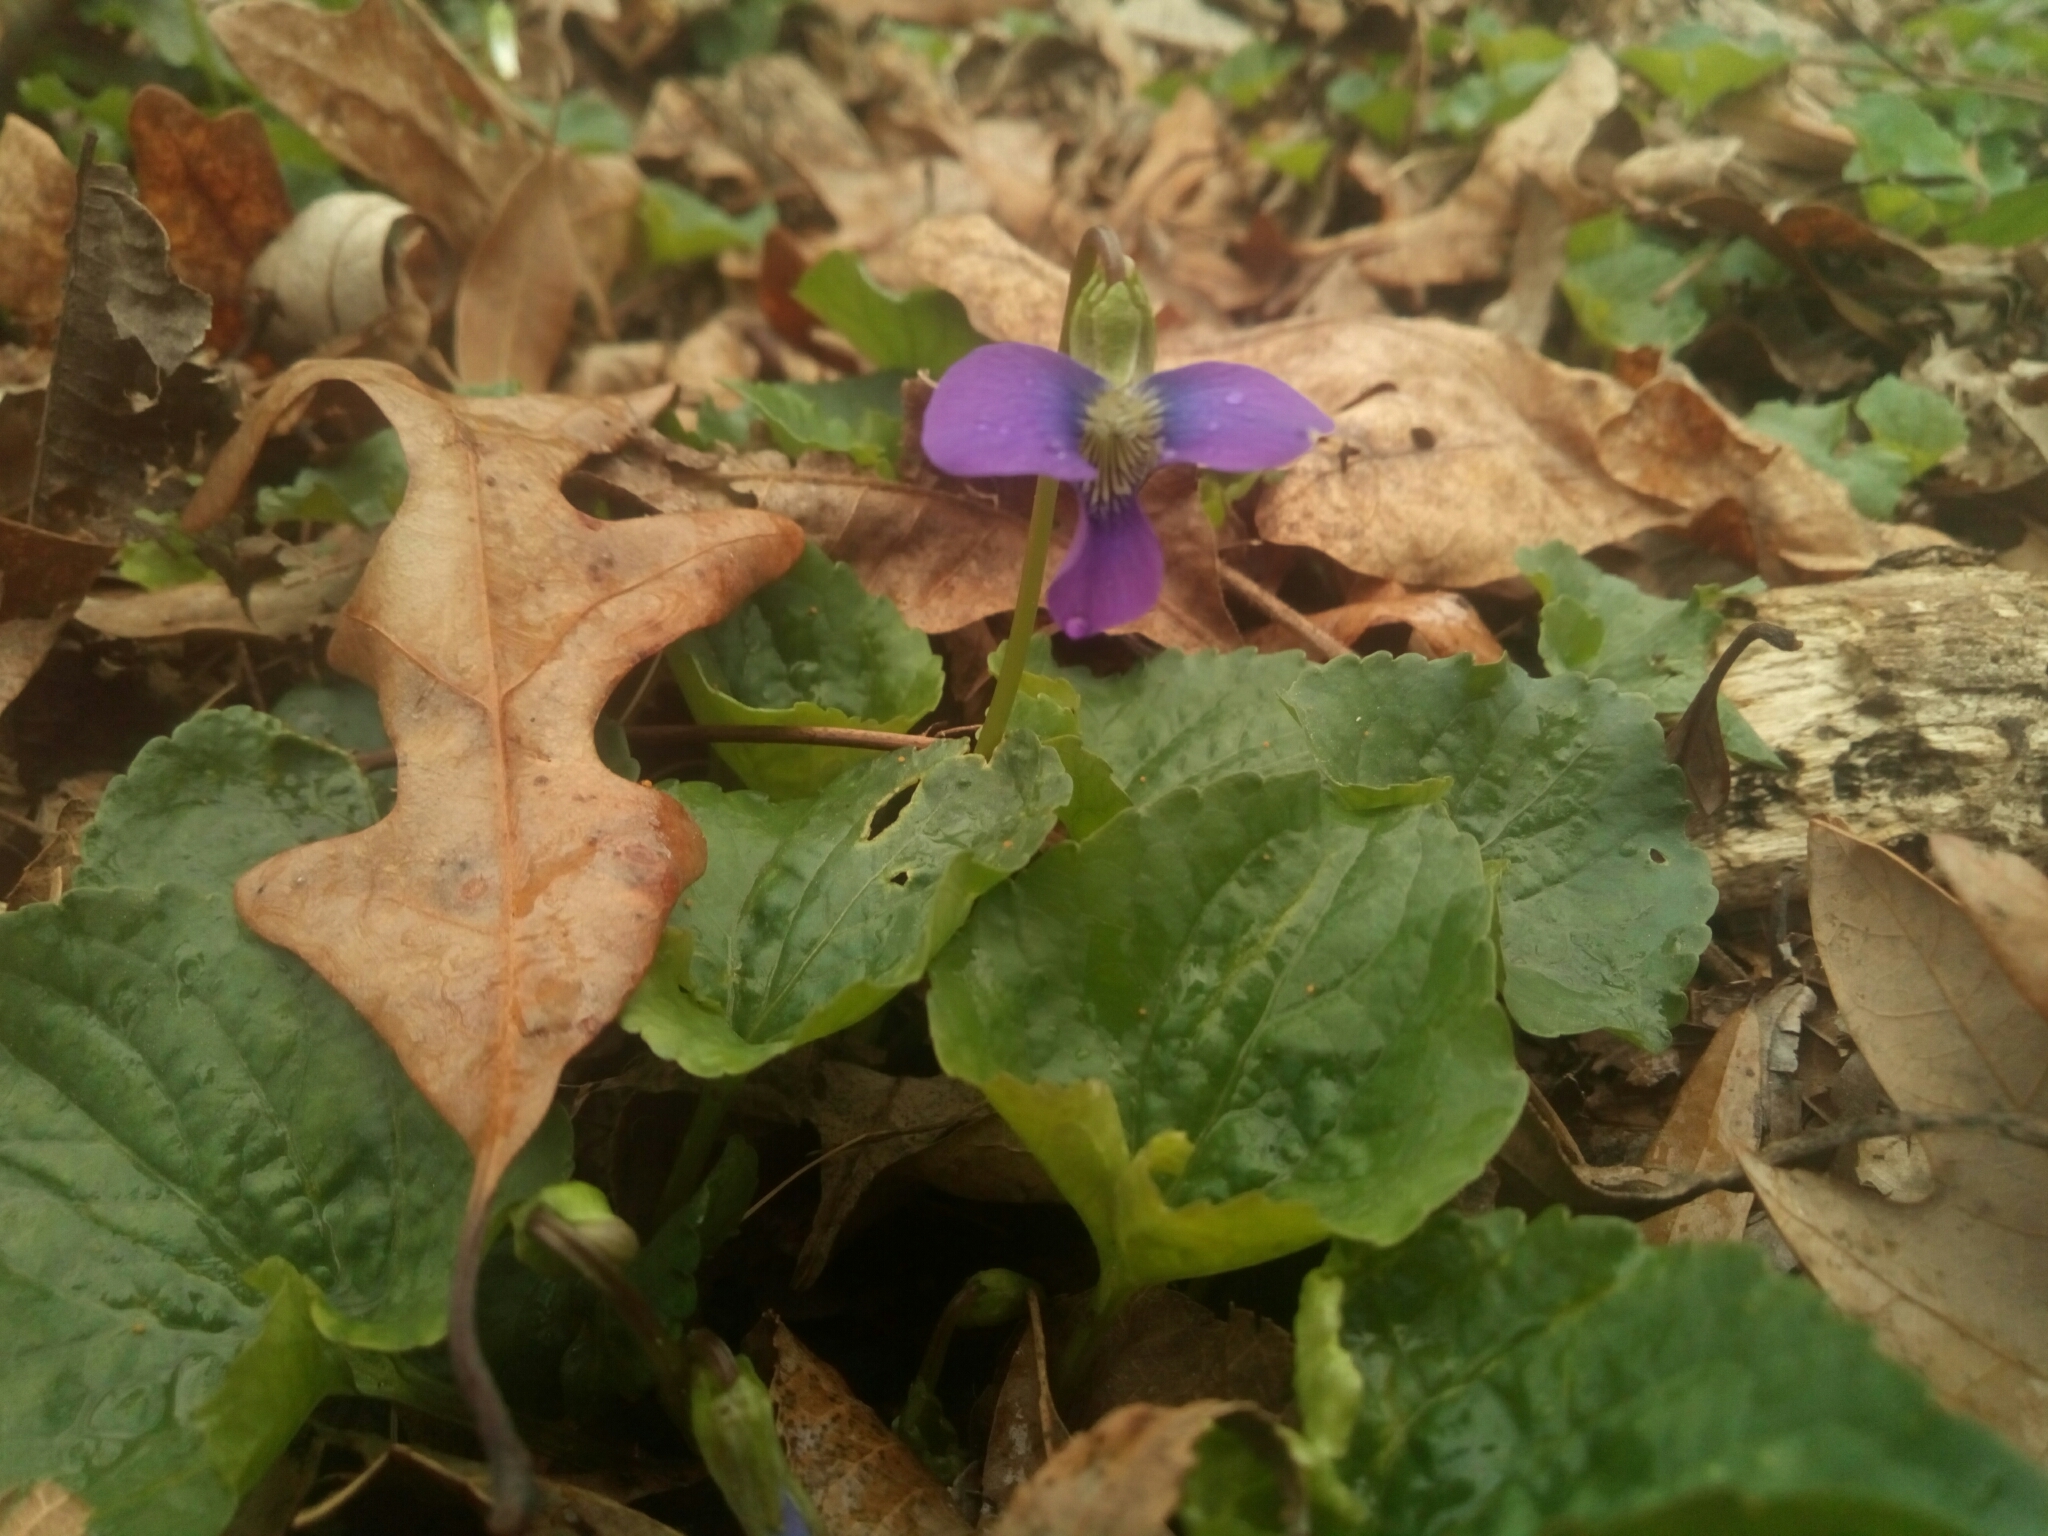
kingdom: Plantae
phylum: Tracheophyta
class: Magnoliopsida
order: Malpighiales
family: Violaceae
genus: Viola
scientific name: Viola sororia
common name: Dooryard violet
